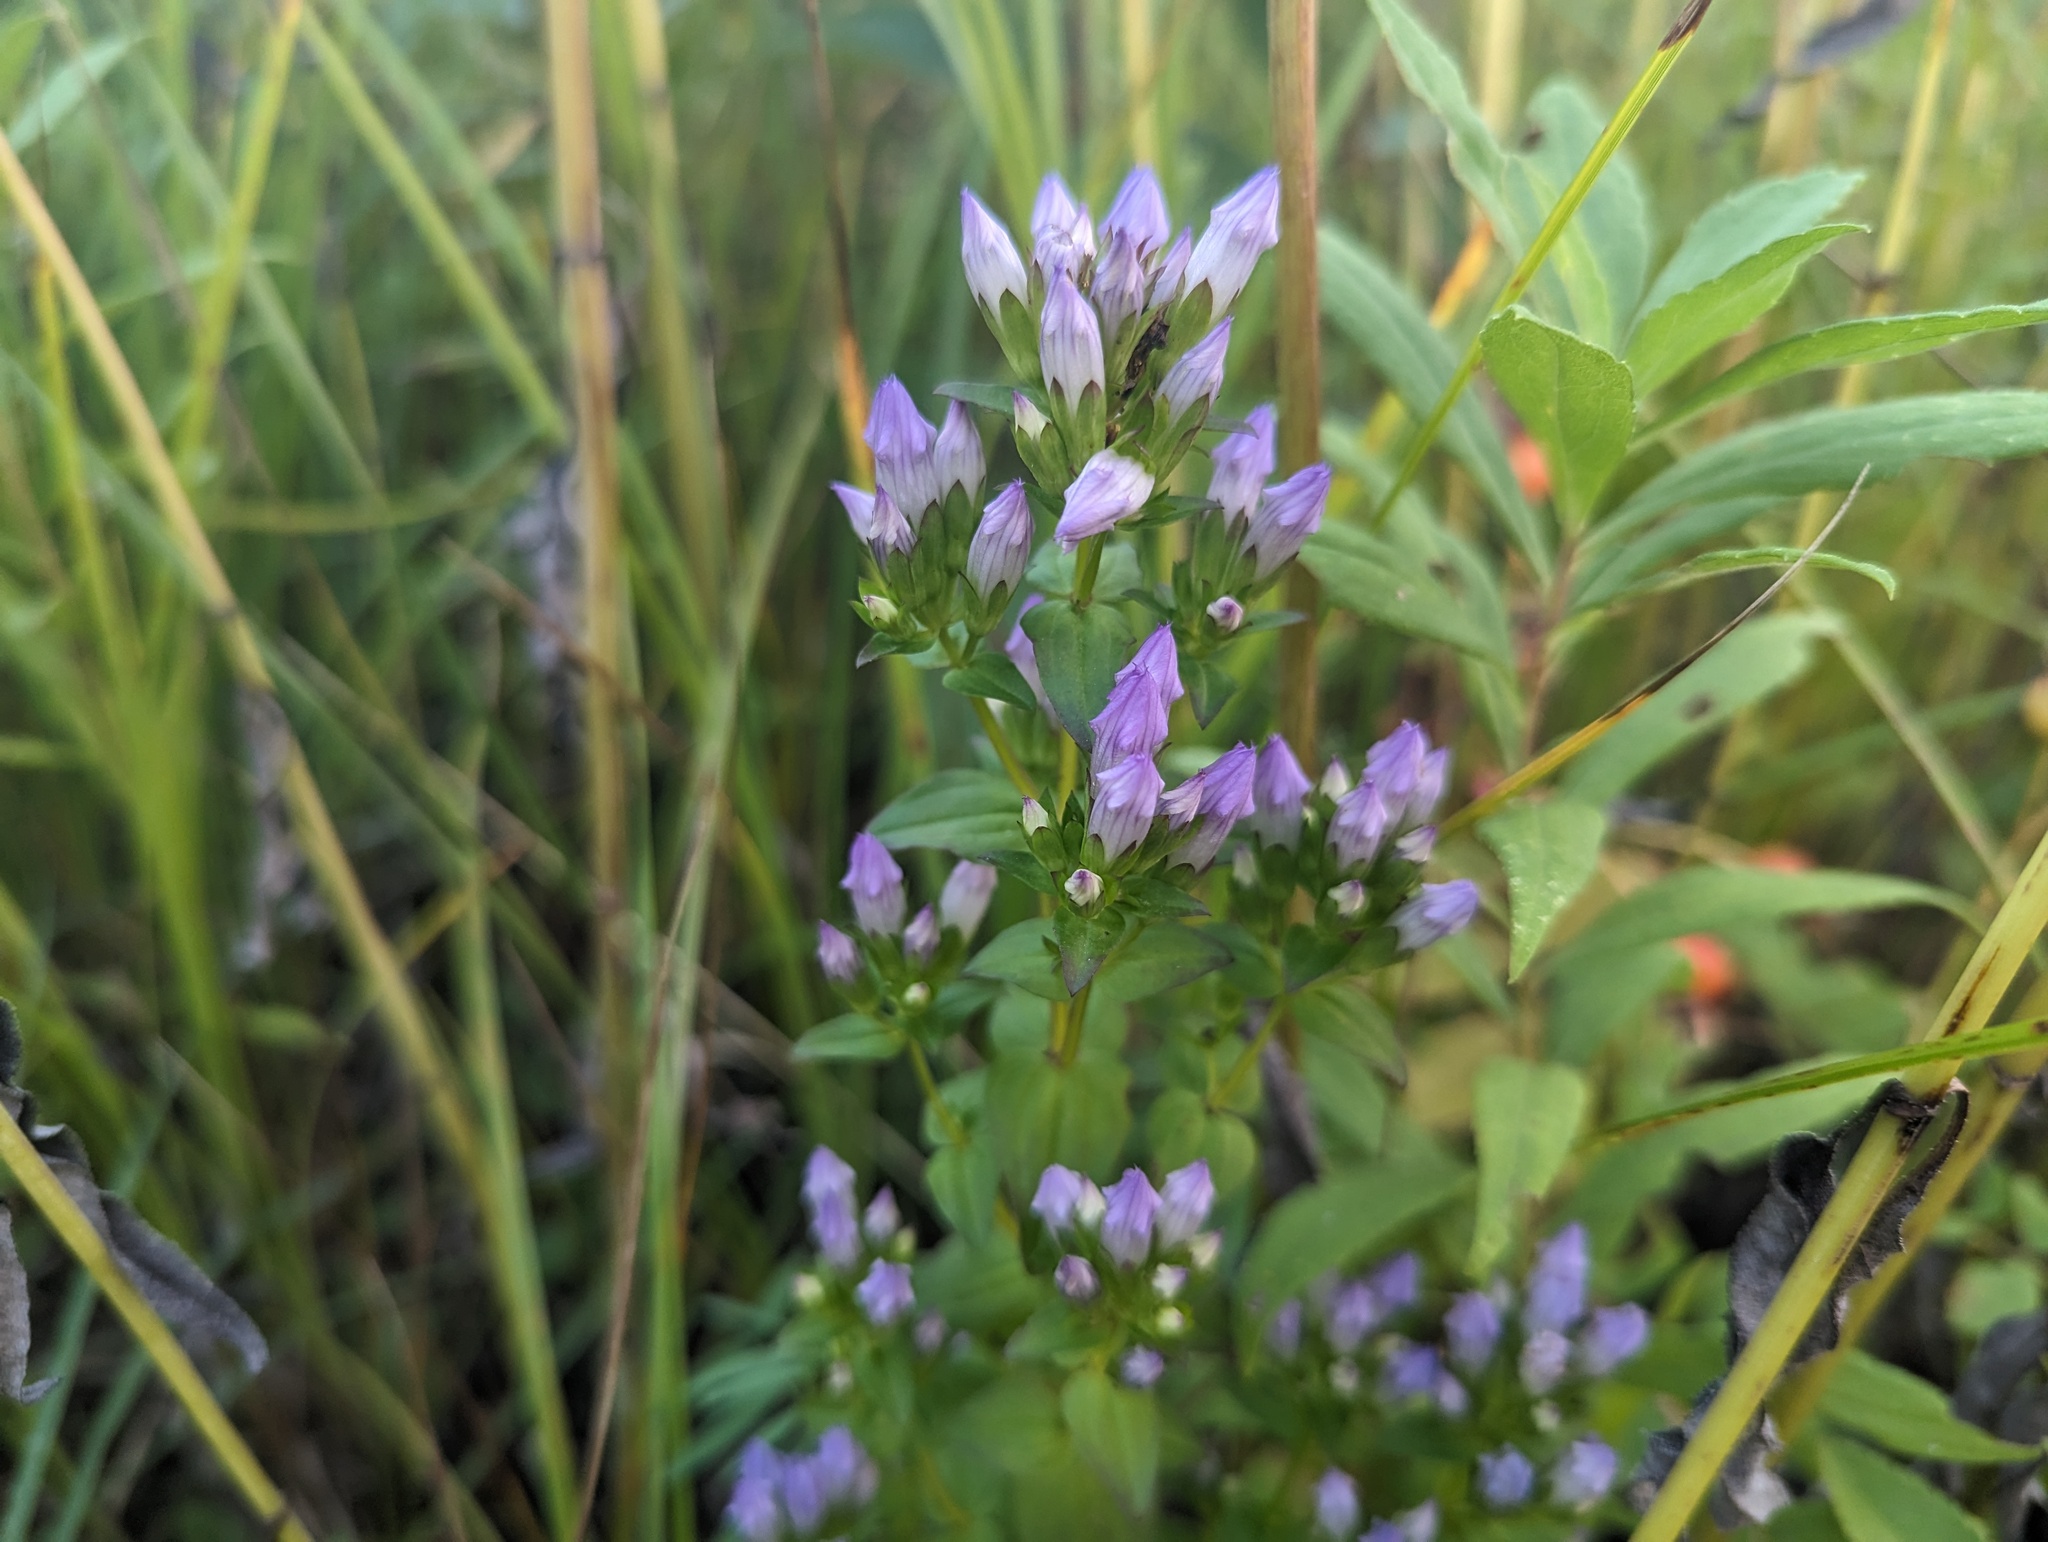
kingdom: Plantae
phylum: Tracheophyta
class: Magnoliopsida
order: Gentianales
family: Gentianaceae
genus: Gentianella
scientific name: Gentianella quinquefolia
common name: Agueweed
